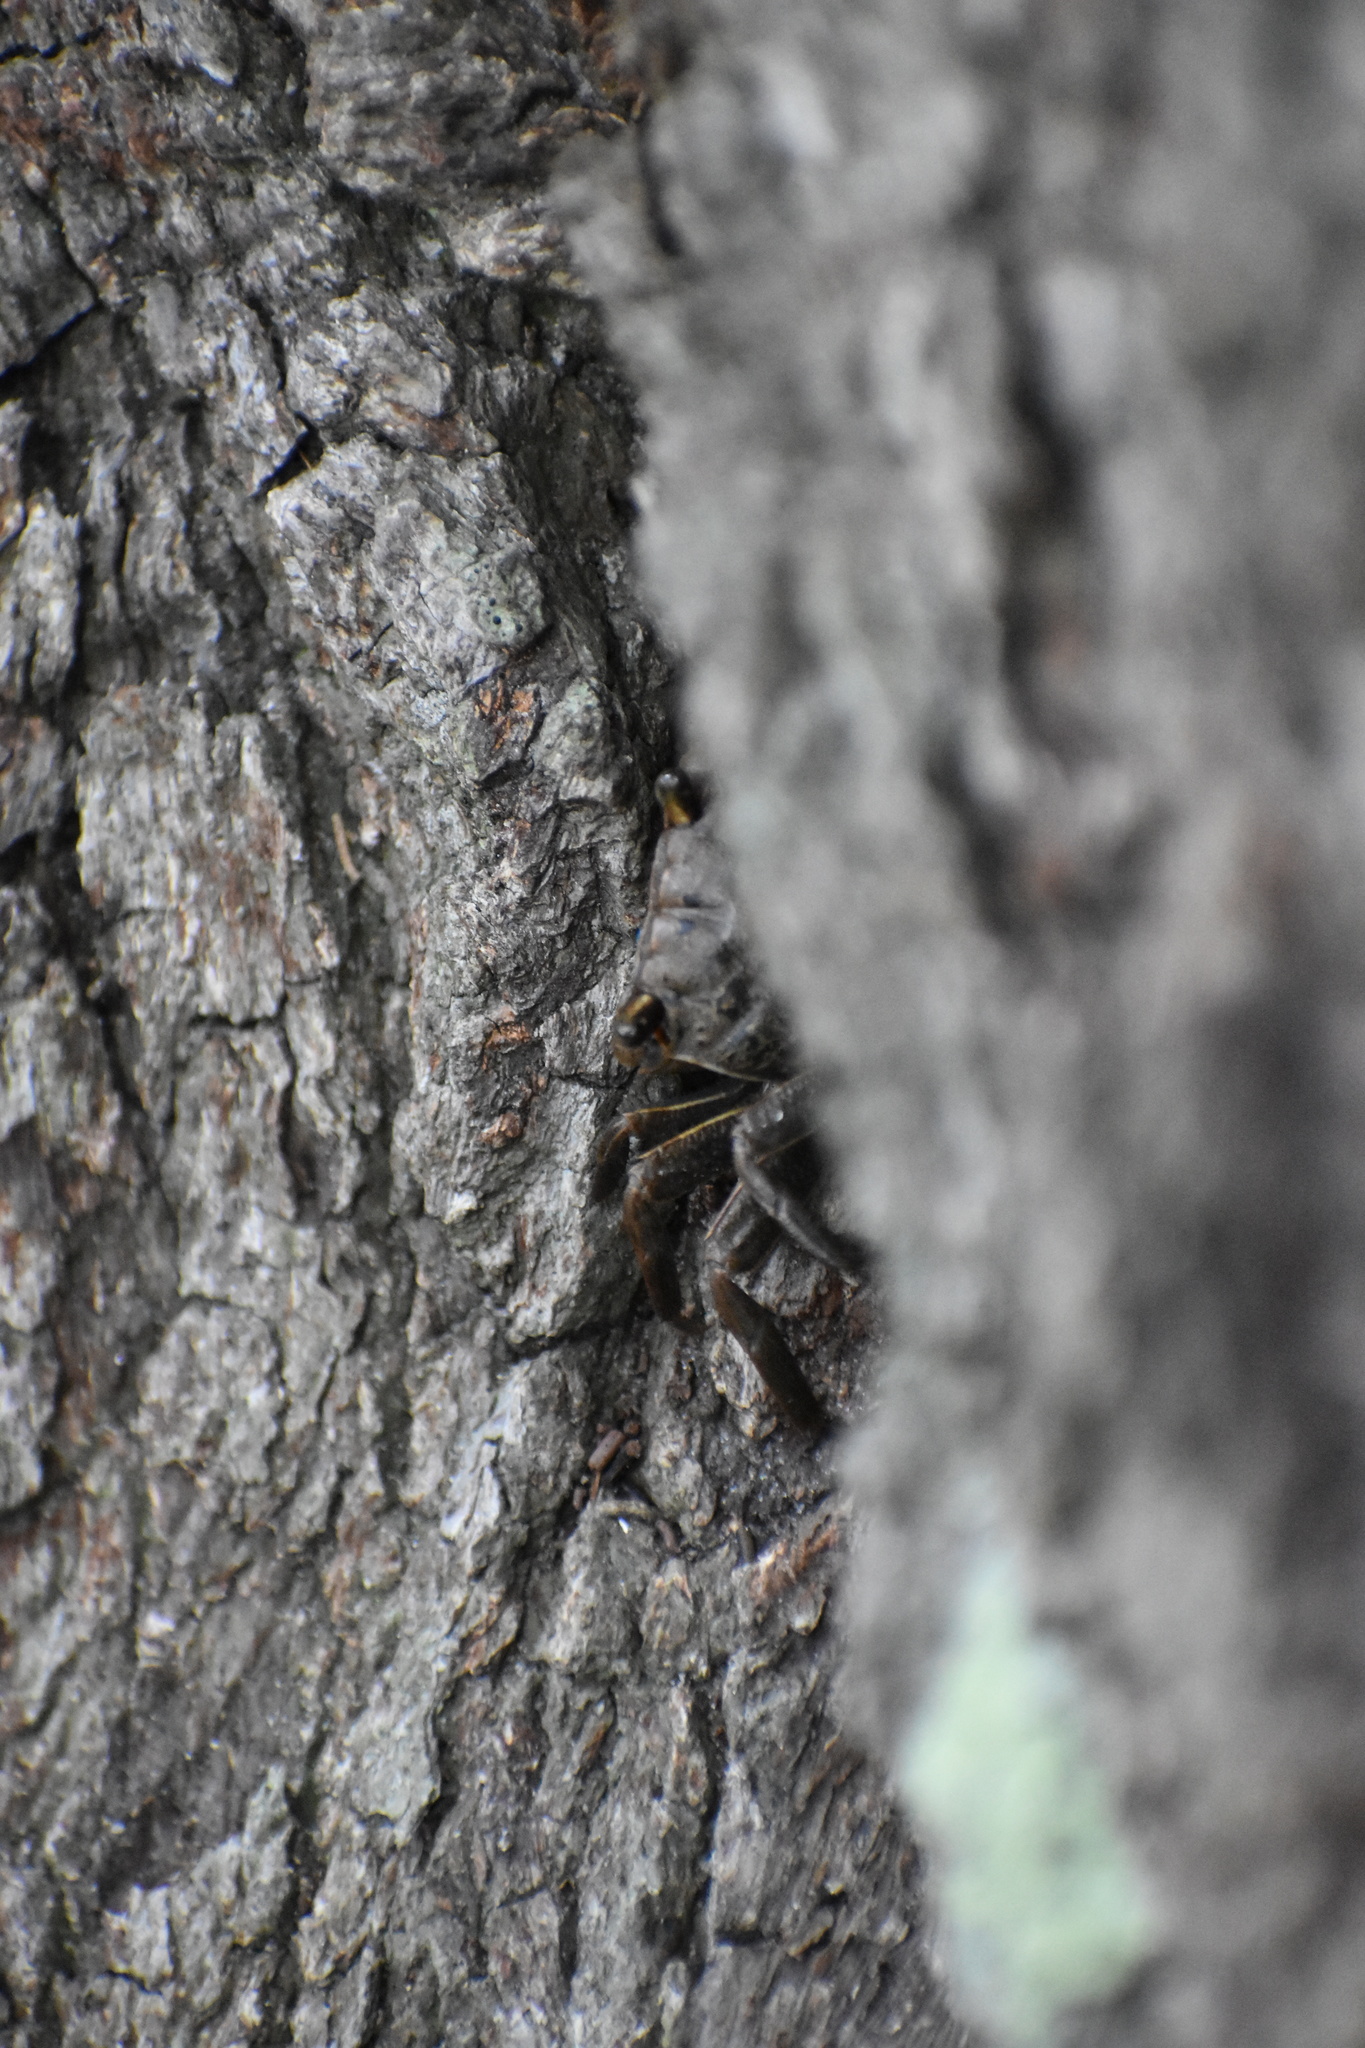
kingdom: Animalia
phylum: Arthropoda
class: Malacostraca
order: Decapoda
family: Sesarmidae
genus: Armases
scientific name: Armases cinereum
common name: Squareback marsh crab
